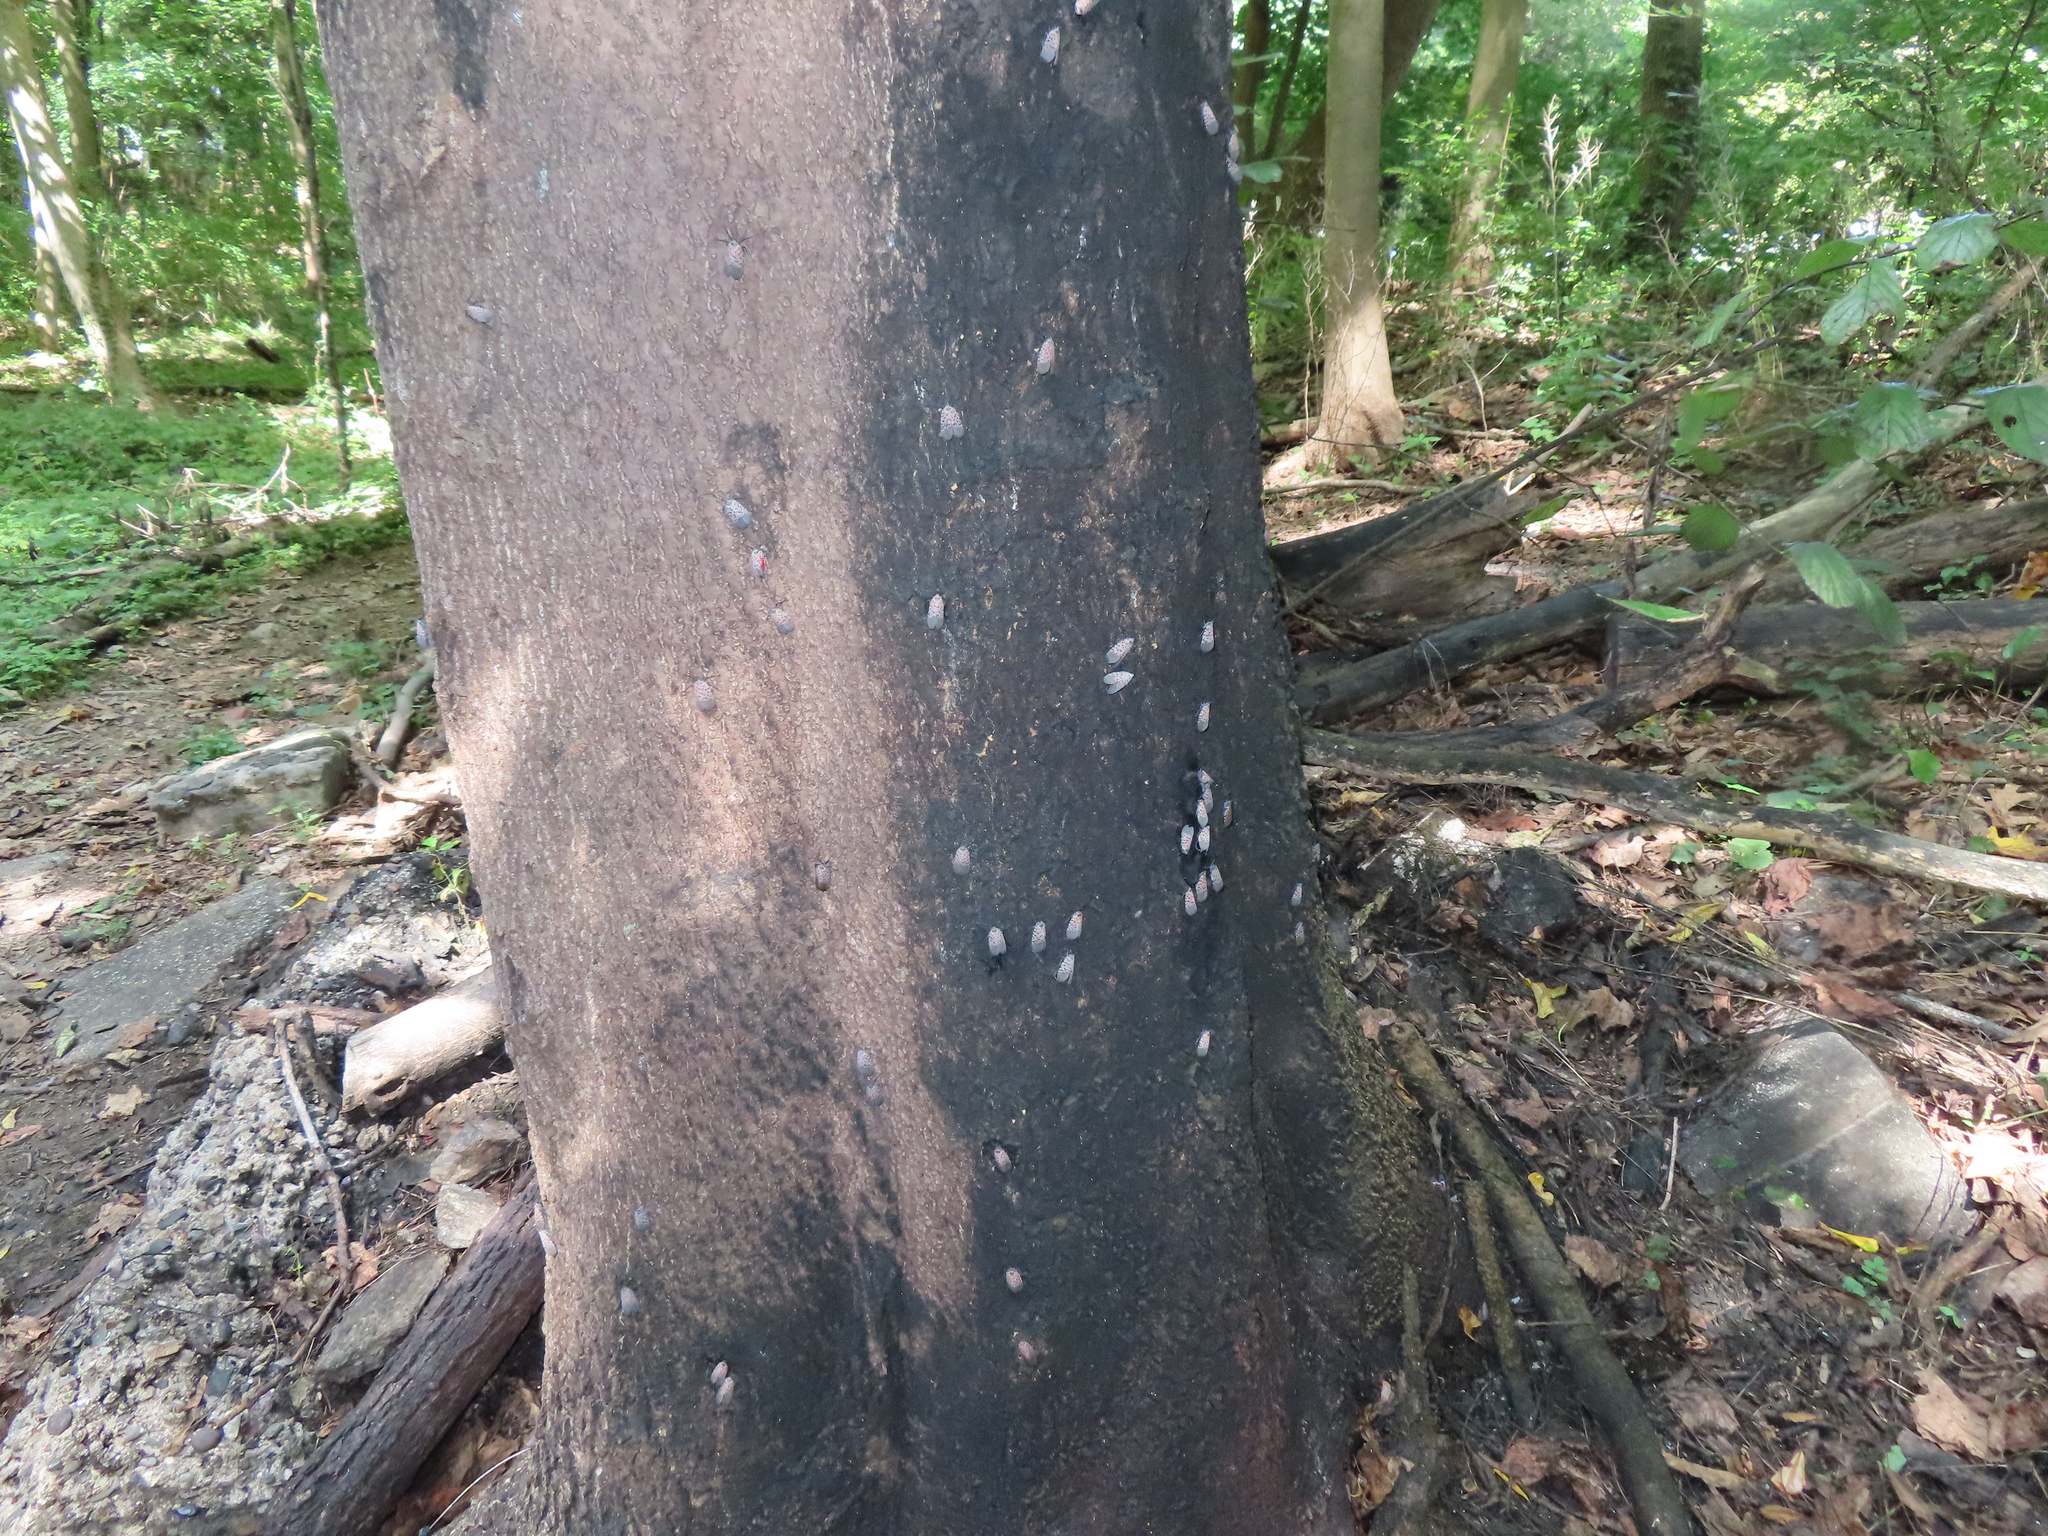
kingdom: Animalia
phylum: Arthropoda
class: Insecta
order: Hemiptera
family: Fulgoridae
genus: Lycorma
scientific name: Lycorma delicatula
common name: Spotted lanternfly
